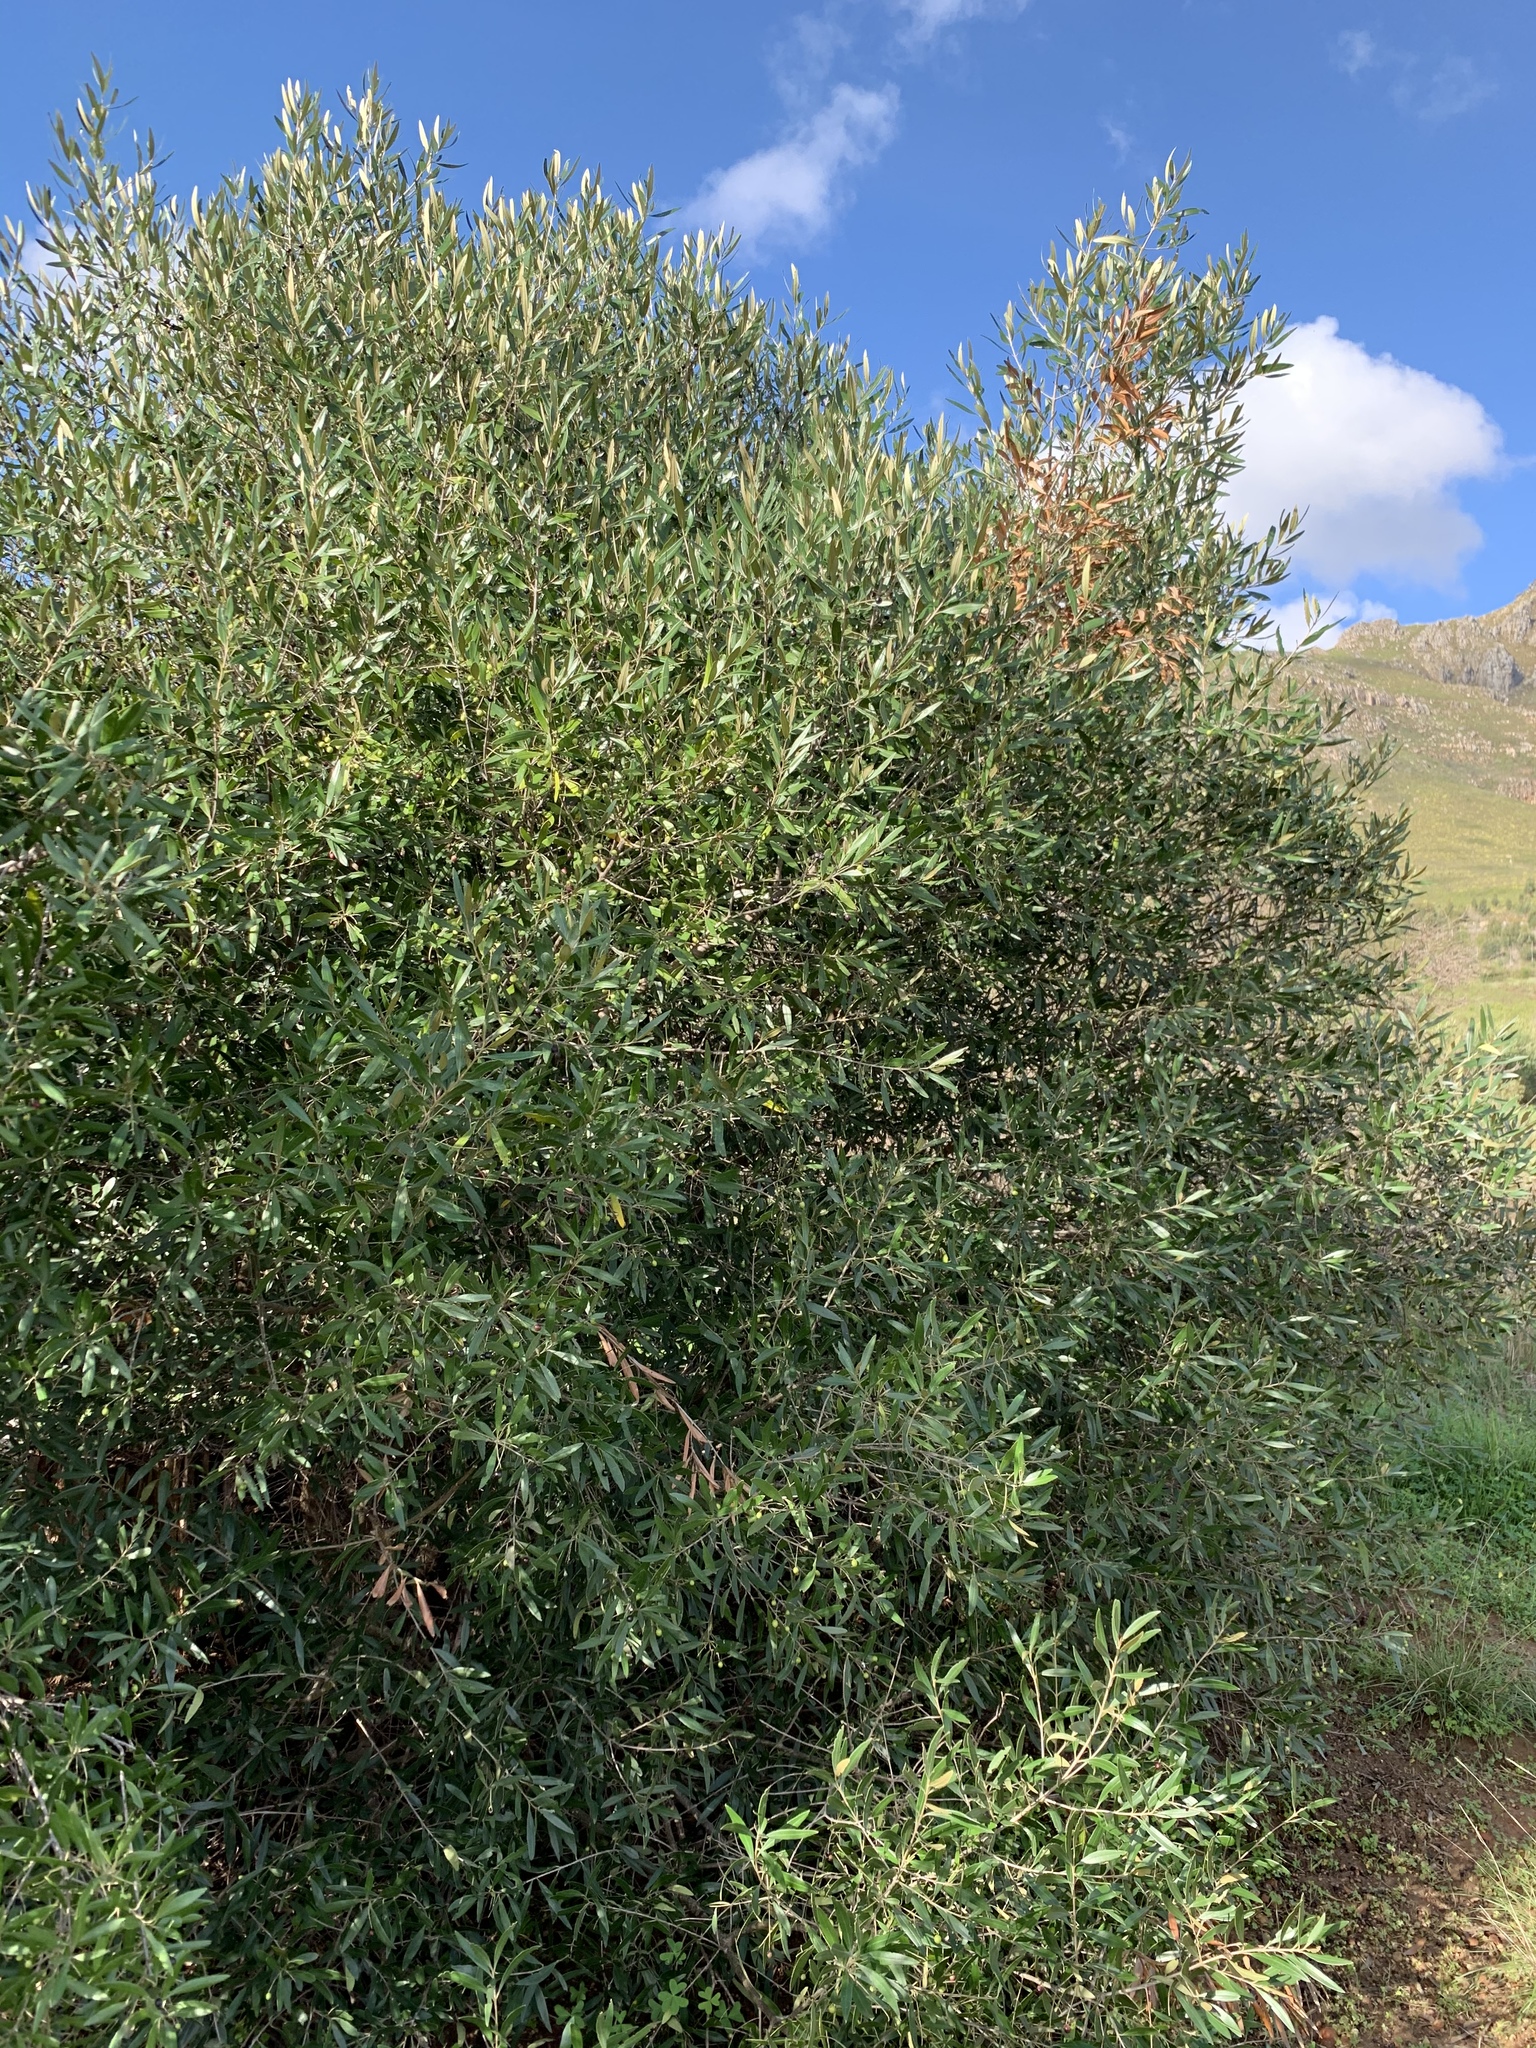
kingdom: Plantae
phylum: Tracheophyta
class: Magnoliopsida
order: Lamiales
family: Oleaceae
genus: Olea
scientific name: Olea europaea
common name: Olive
